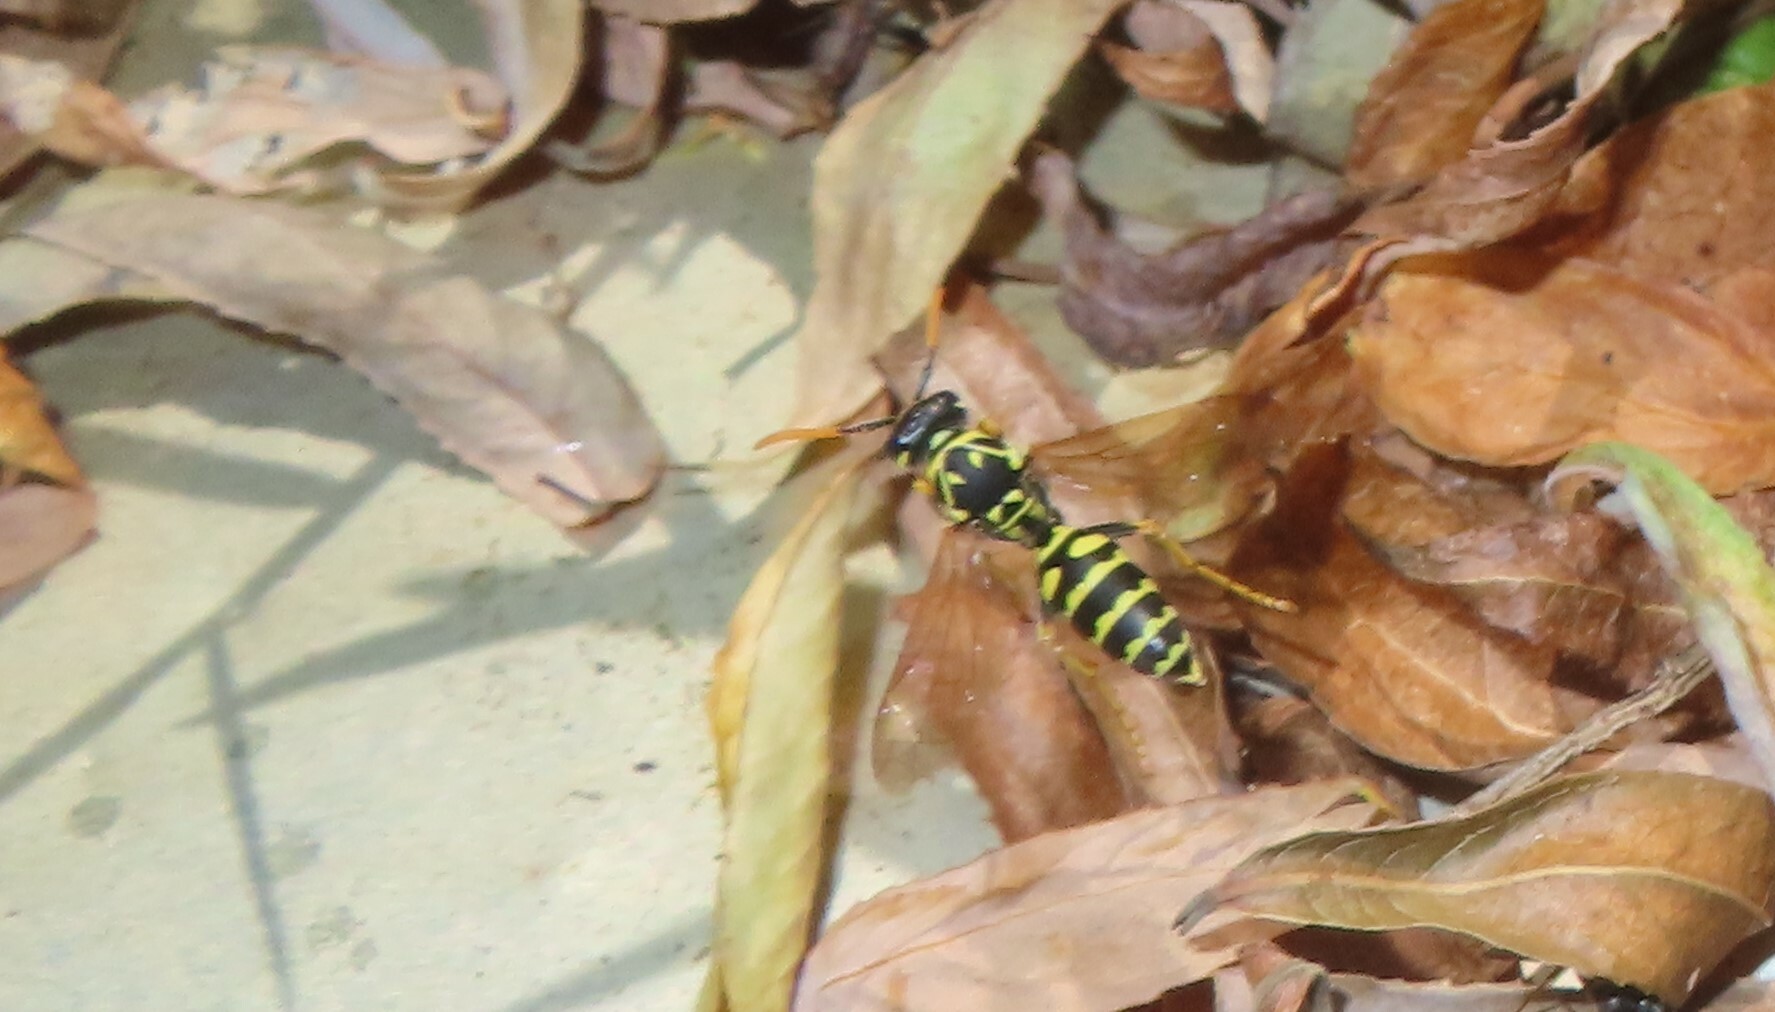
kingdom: Animalia
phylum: Arthropoda
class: Insecta
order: Hymenoptera
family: Eumenidae
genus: Polistes
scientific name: Polistes dominula
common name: Paper wasp
